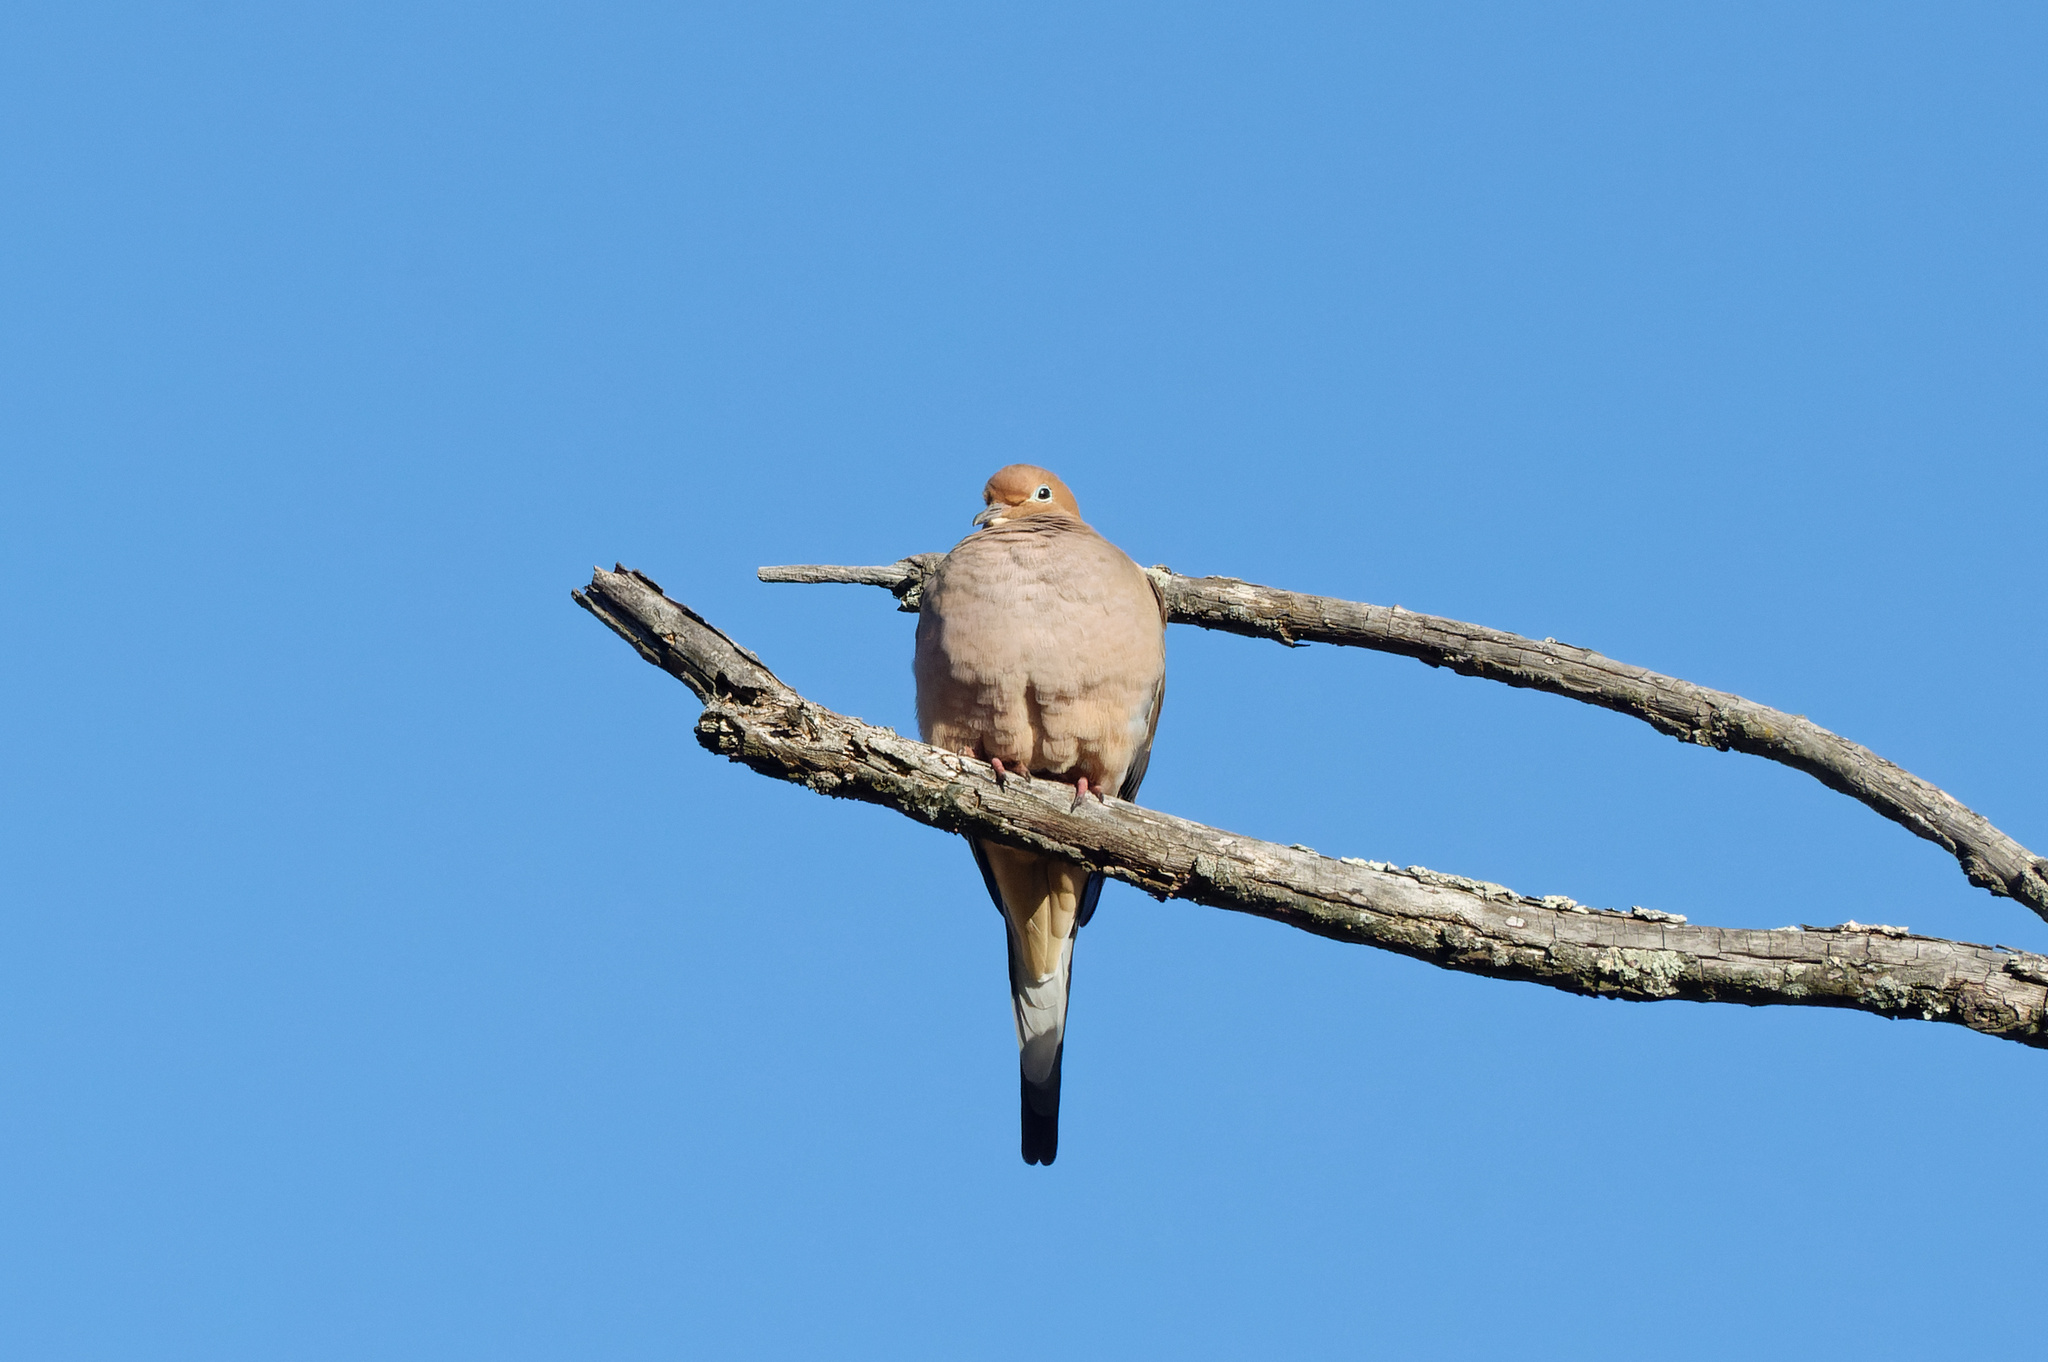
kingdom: Animalia
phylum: Chordata
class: Aves
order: Columbiformes
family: Columbidae
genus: Zenaida
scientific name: Zenaida macroura
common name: Mourning dove
